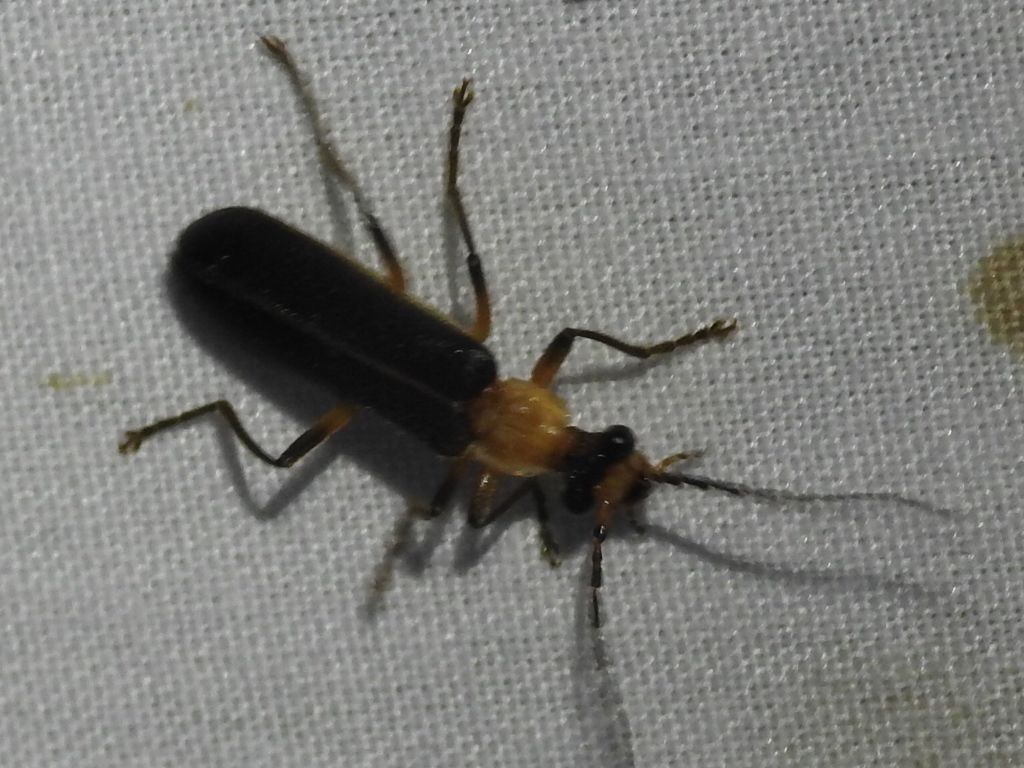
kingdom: Animalia
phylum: Arthropoda
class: Insecta
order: Coleoptera
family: Cantharidae
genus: Podabrus
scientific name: Podabrus flavicollis
